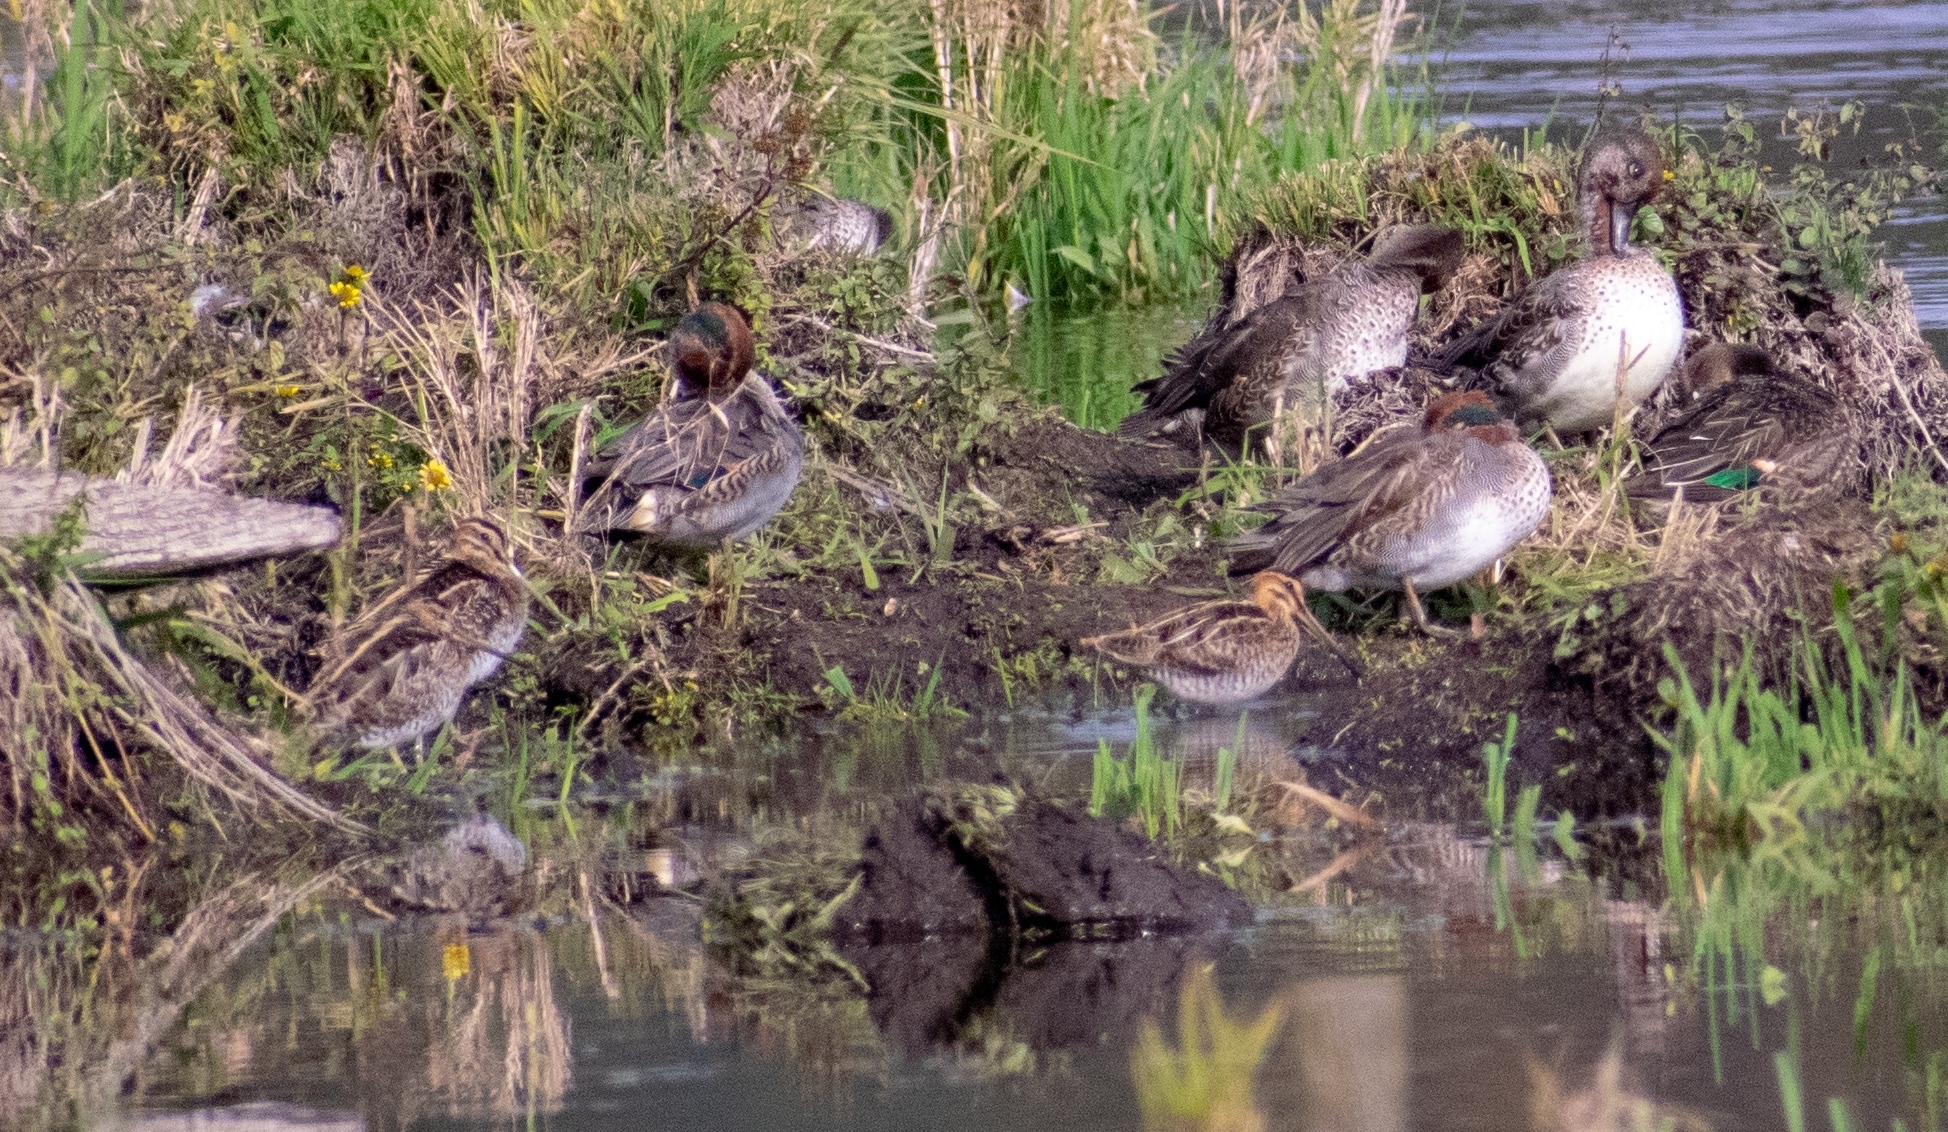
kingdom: Animalia
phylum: Chordata
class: Aves
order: Anseriformes
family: Anatidae
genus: Anas
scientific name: Anas crecca
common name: Eurasian teal
